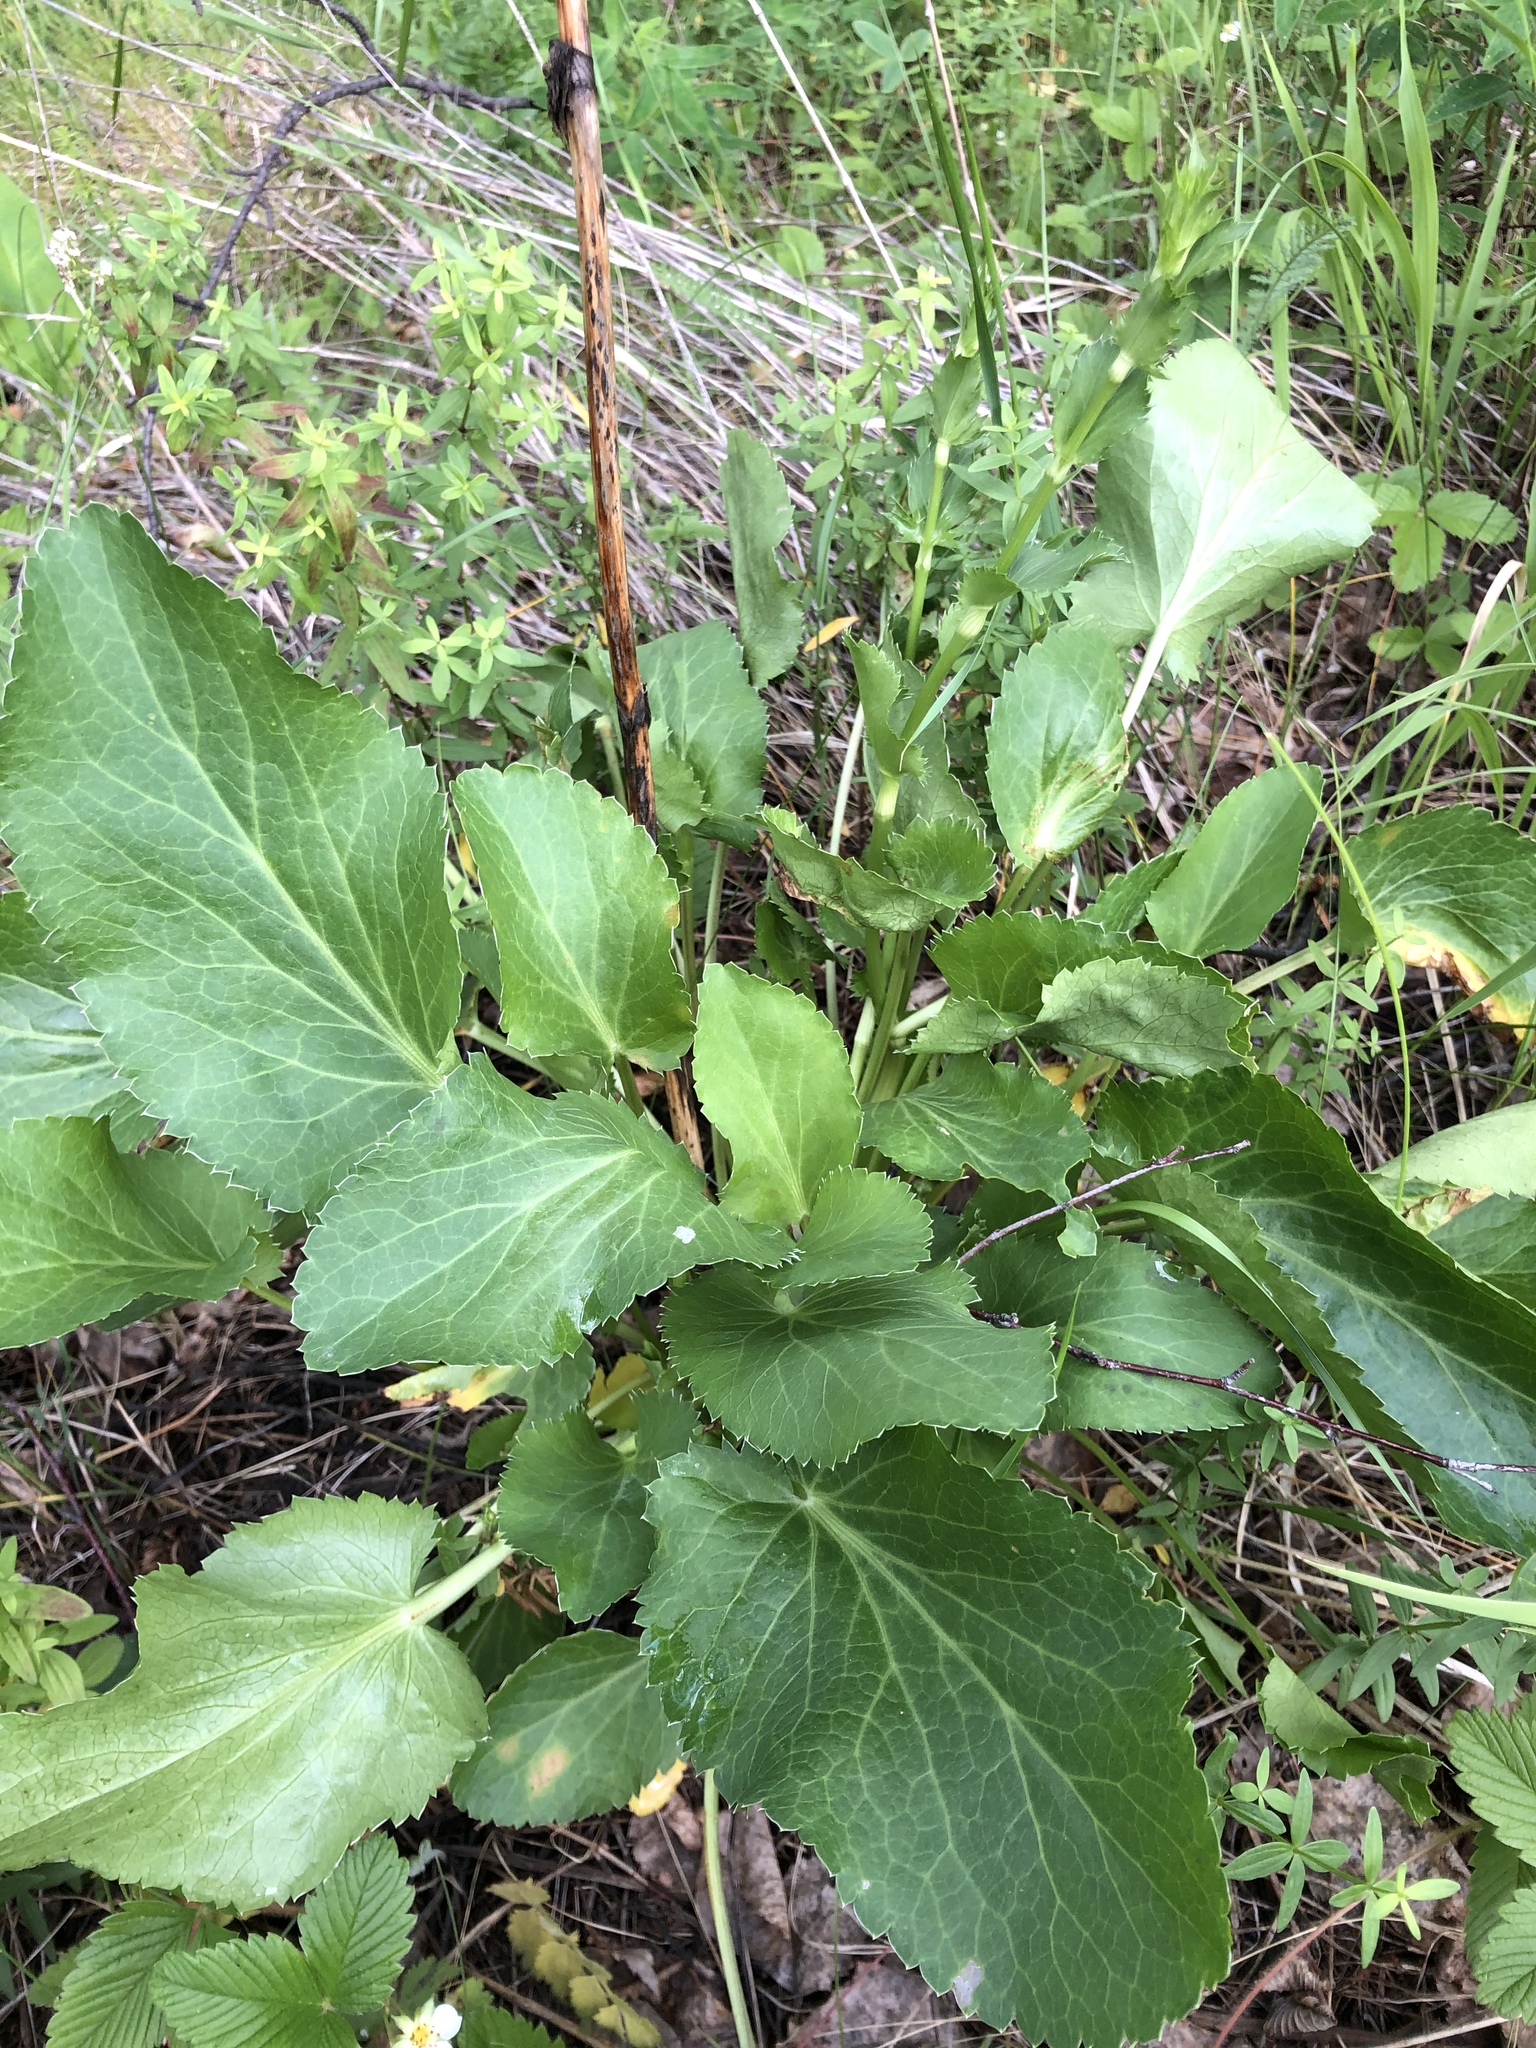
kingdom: Plantae
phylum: Tracheophyta
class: Magnoliopsida
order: Apiales
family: Apiaceae
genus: Eryngium
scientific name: Eryngium planum
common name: Blue eryngo
